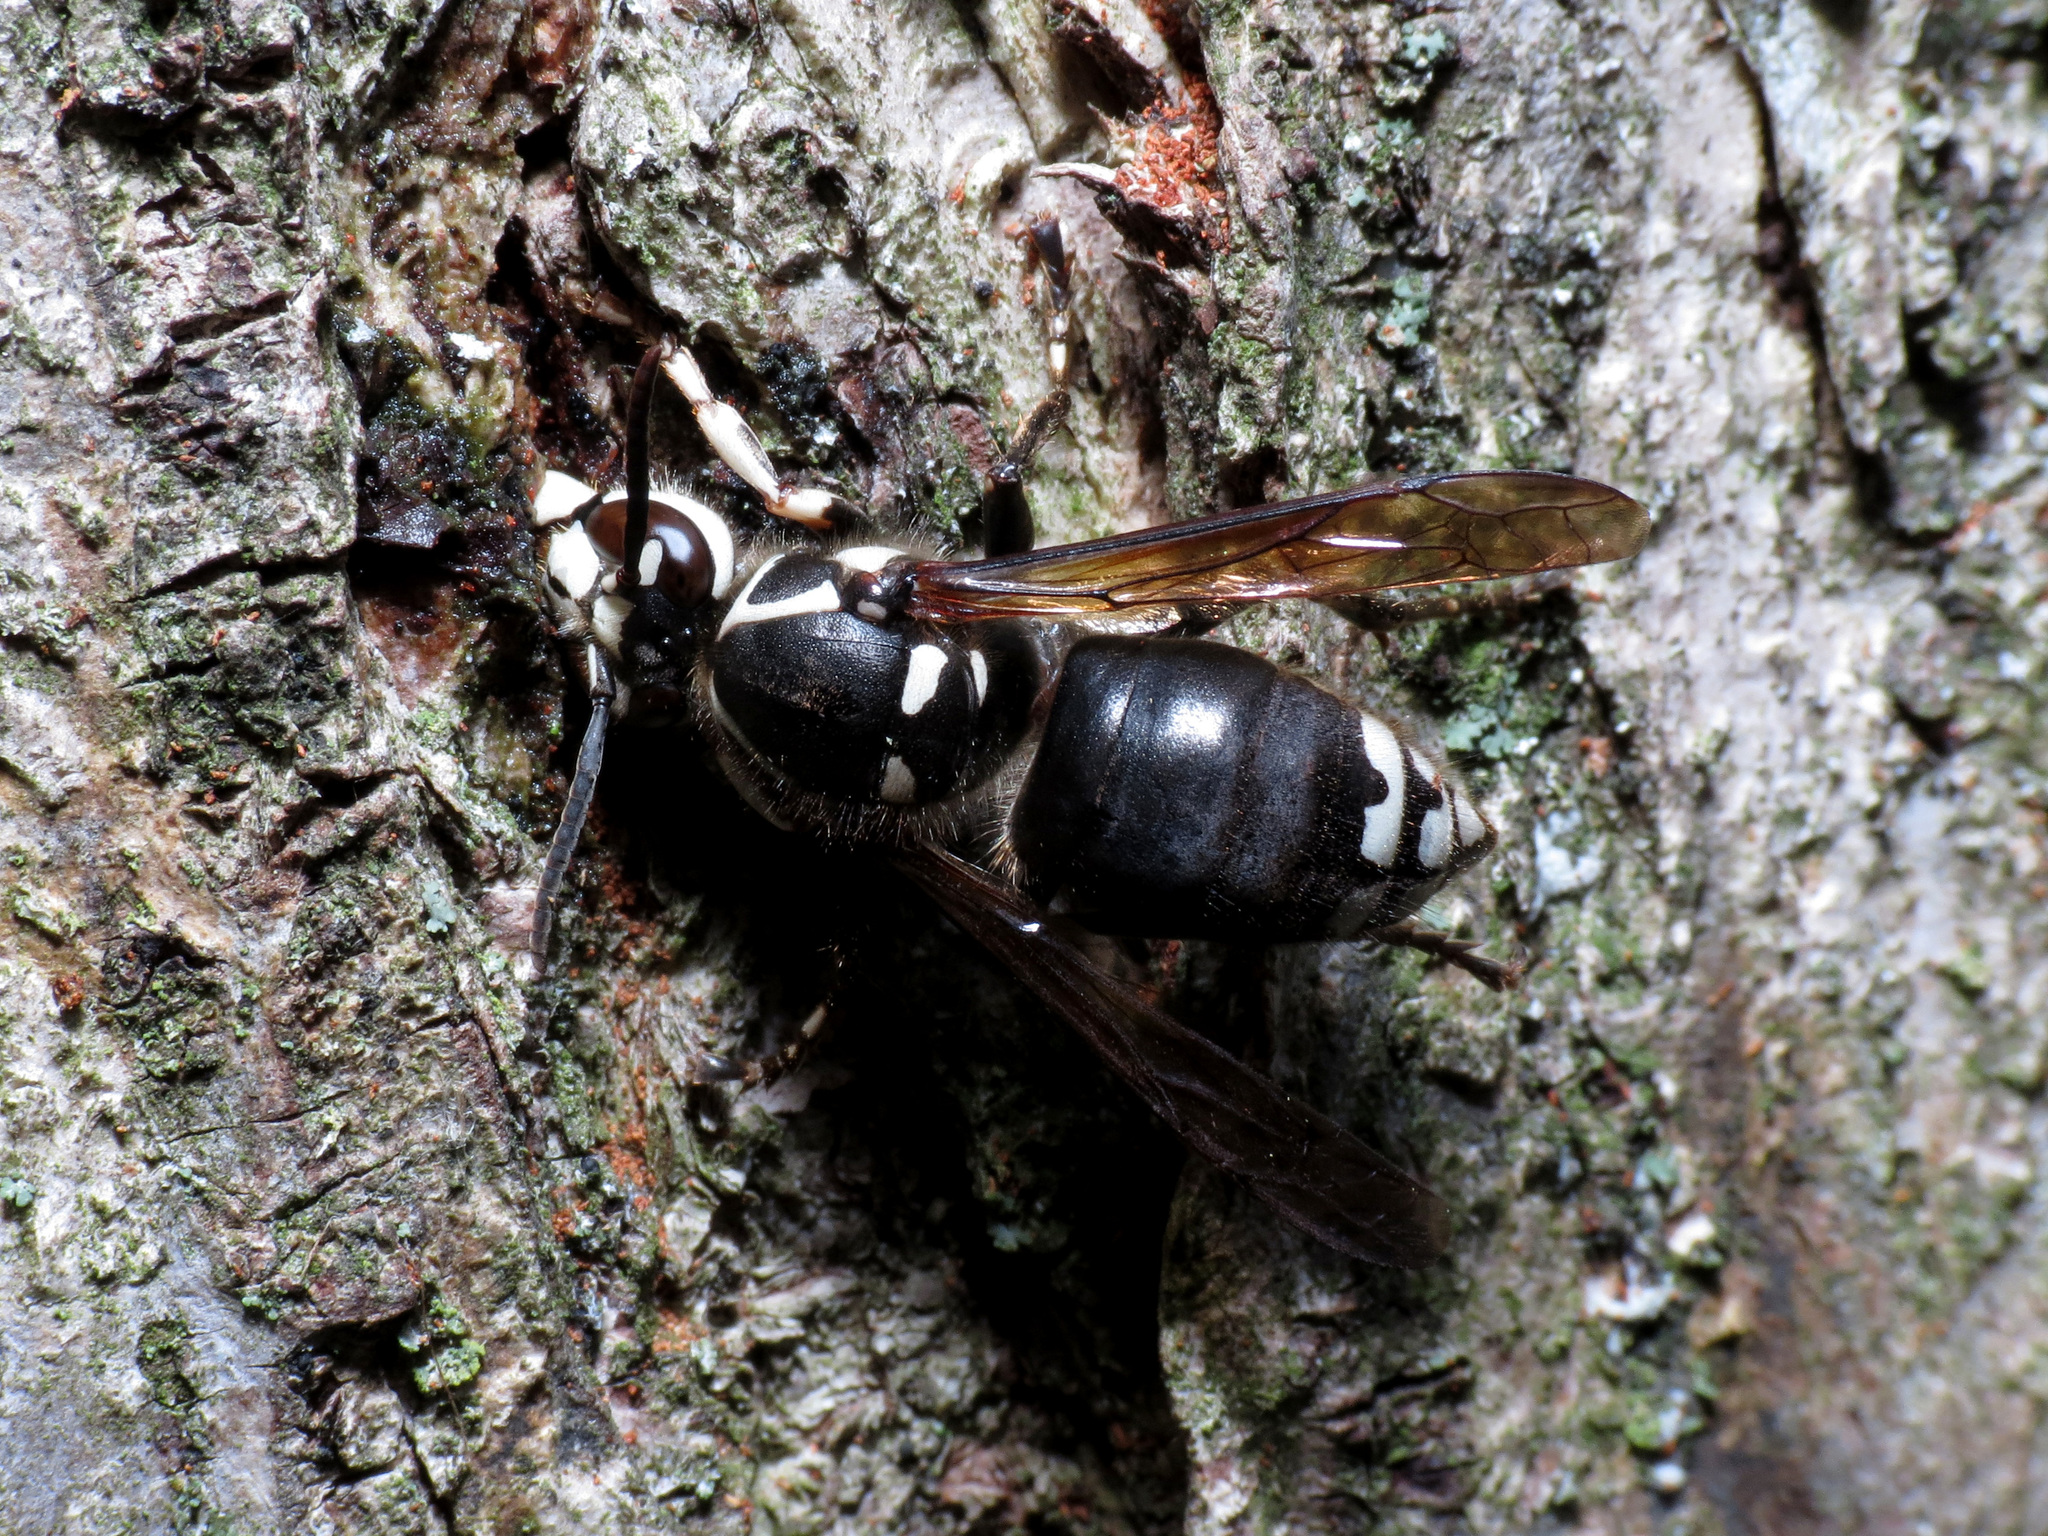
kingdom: Animalia
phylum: Arthropoda
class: Insecta
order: Hymenoptera
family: Vespidae
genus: Dolichovespula
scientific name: Dolichovespula maculata
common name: Bald-faced hornet
